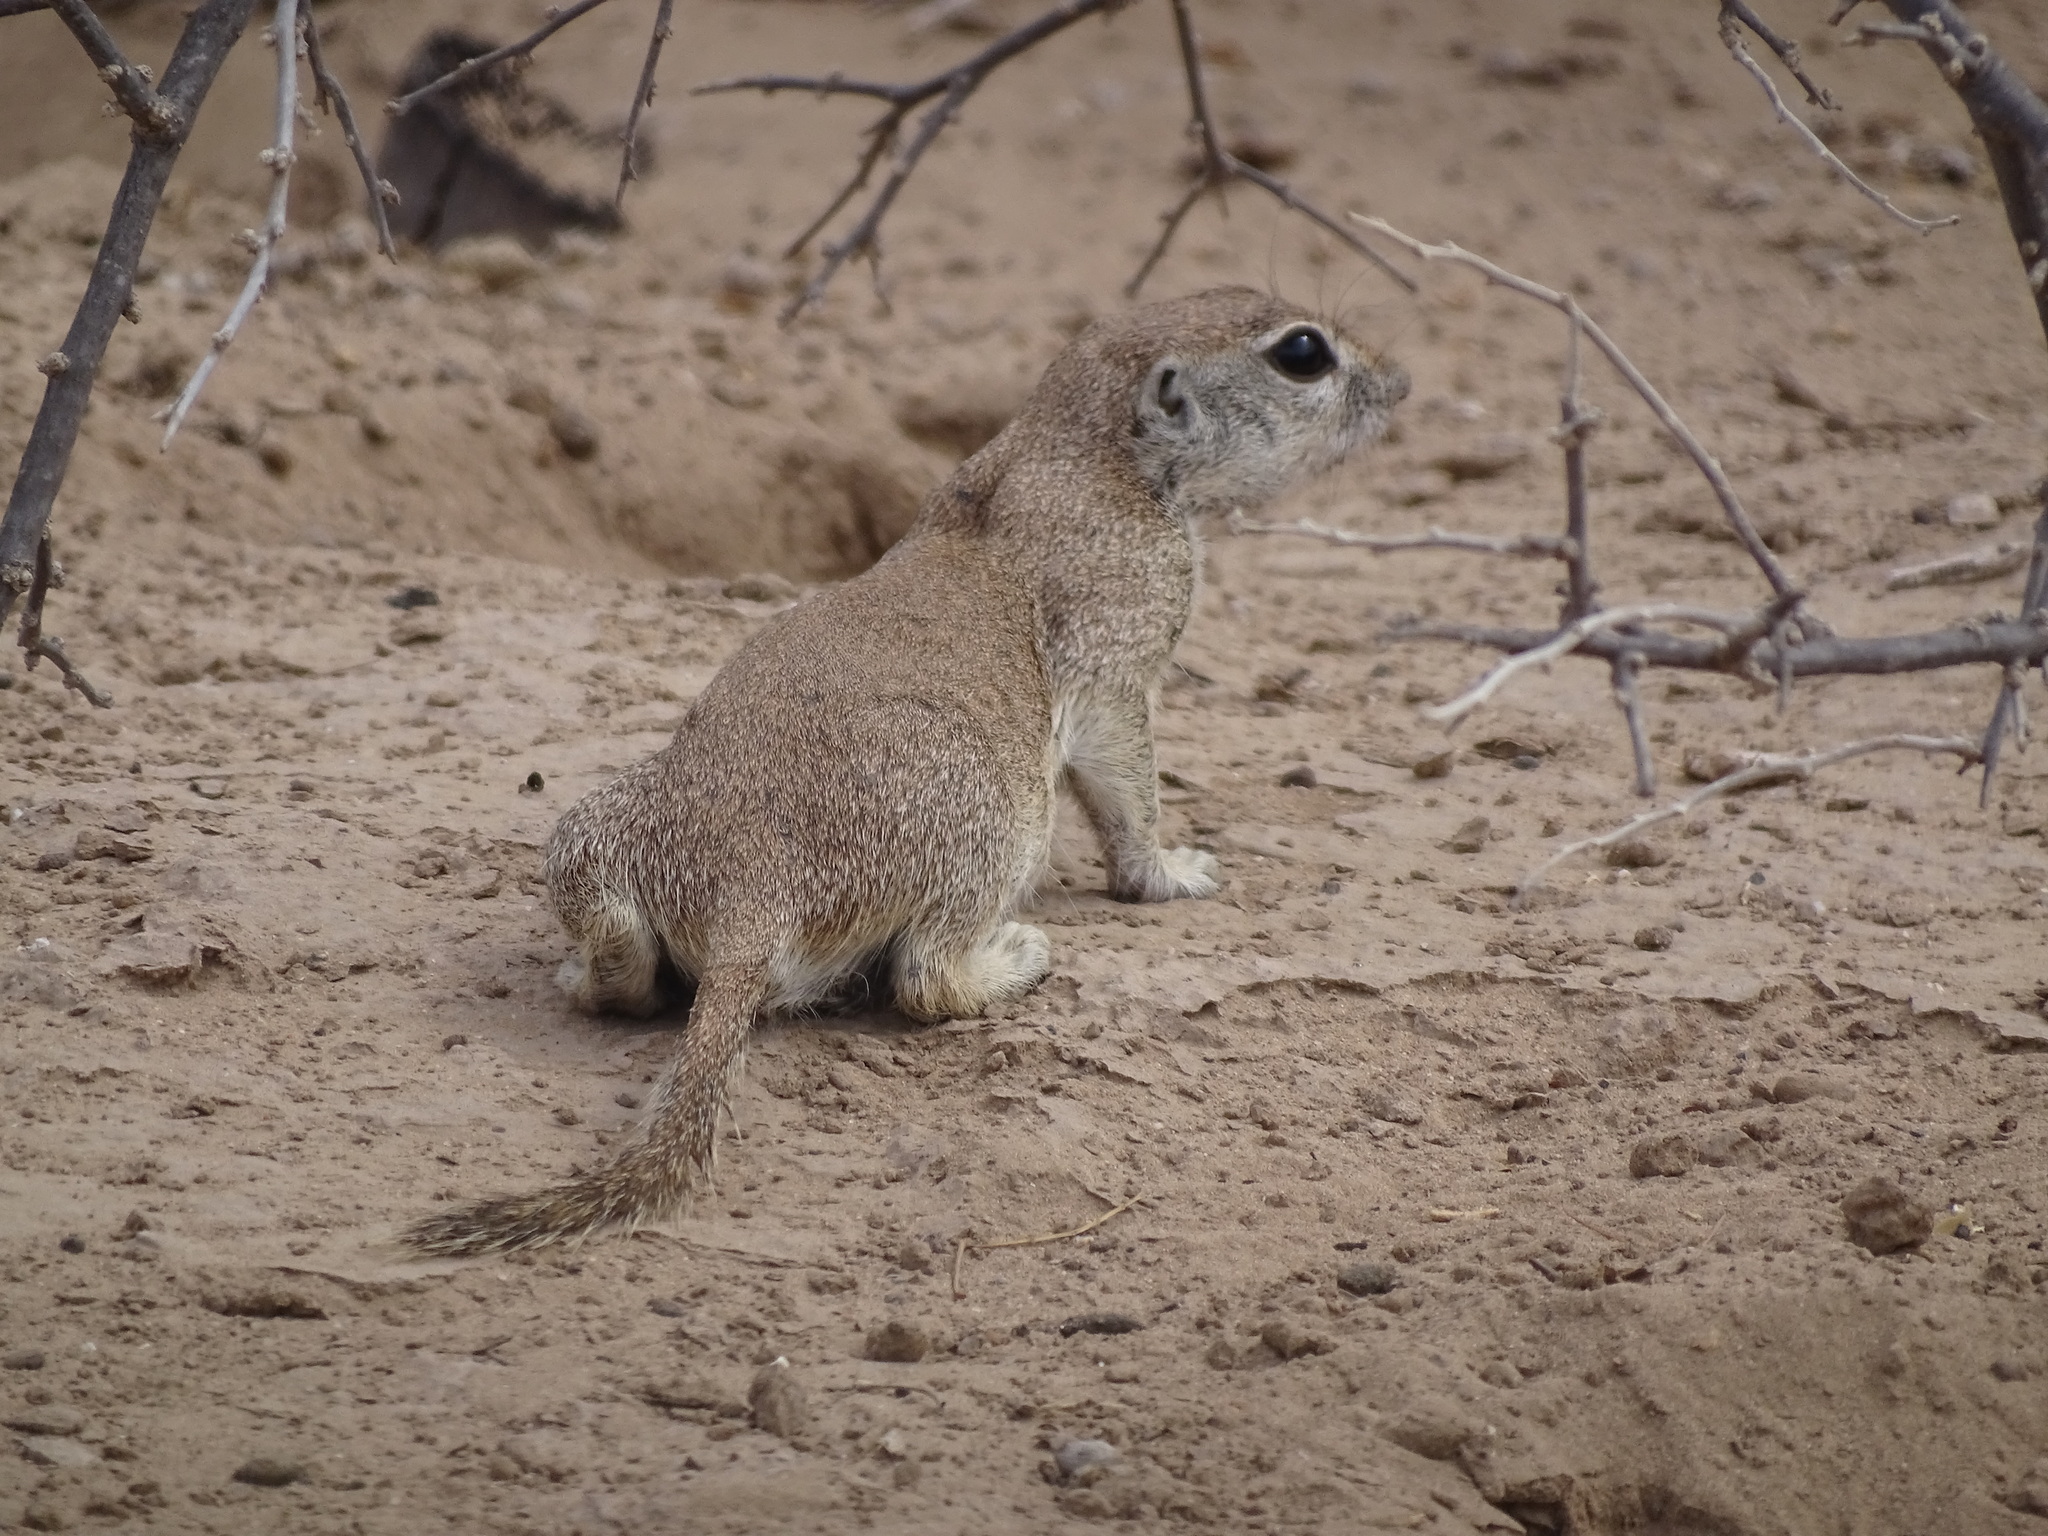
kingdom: Animalia
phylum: Chordata
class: Mammalia
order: Rodentia
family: Sciuridae
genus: Xerospermophilus
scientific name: Xerospermophilus tereticaudus
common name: Round-tailed ground squirrel
